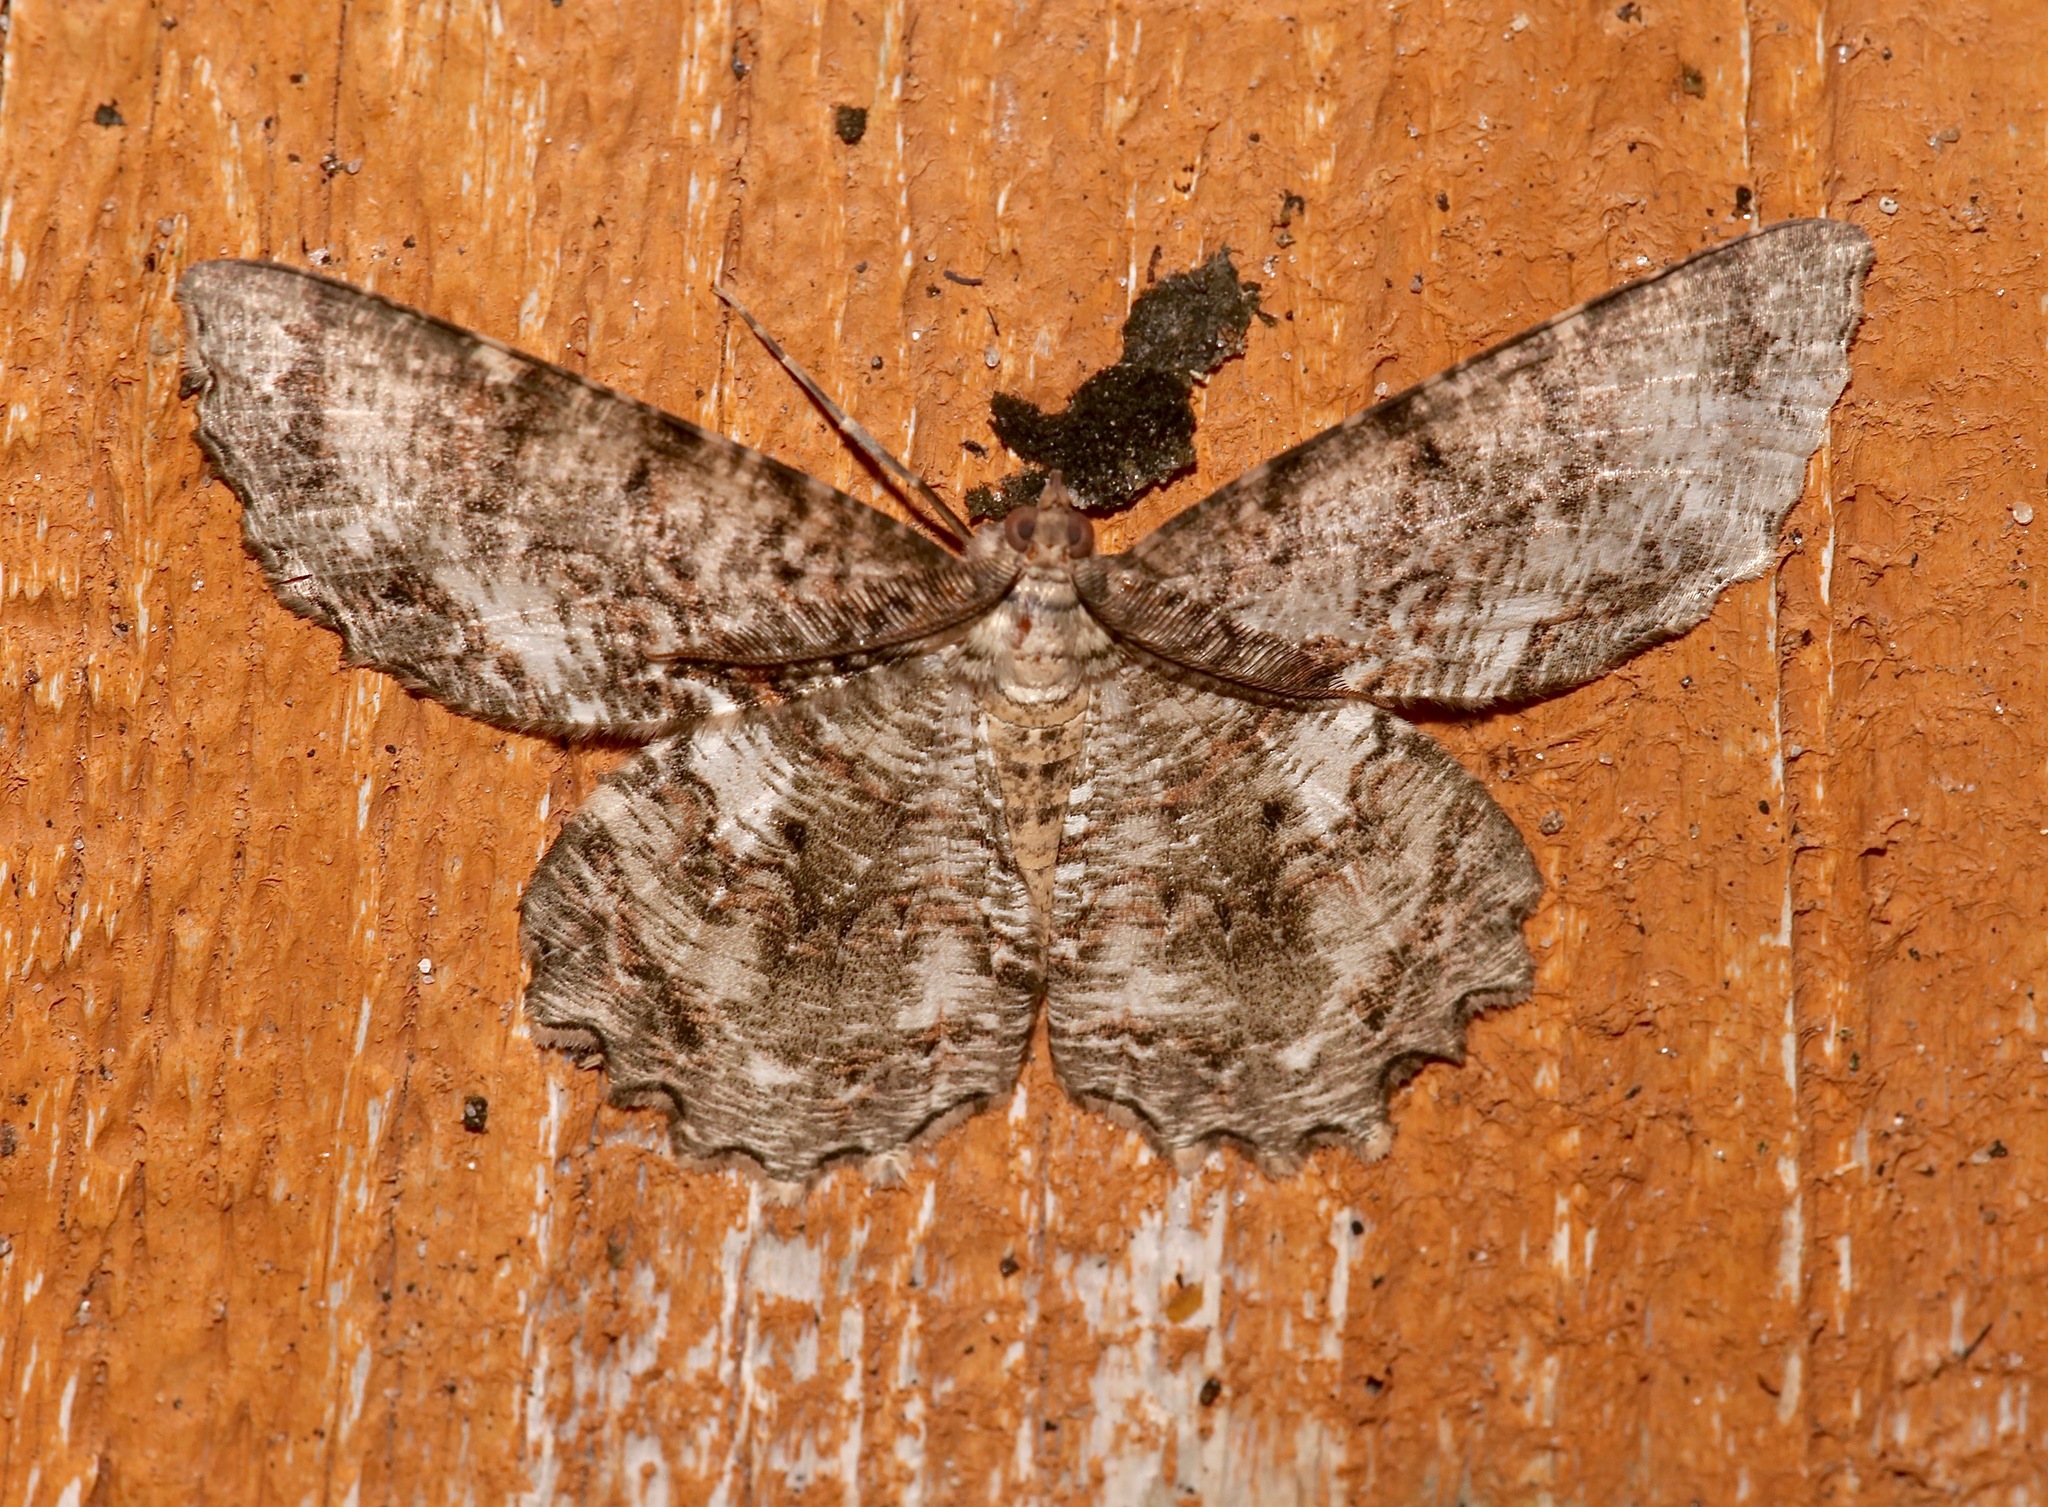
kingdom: Animalia
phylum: Arthropoda
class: Insecta
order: Lepidoptera
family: Geometridae
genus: Epimecis
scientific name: Epimecis hortaria
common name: Tulip-tree beauty
